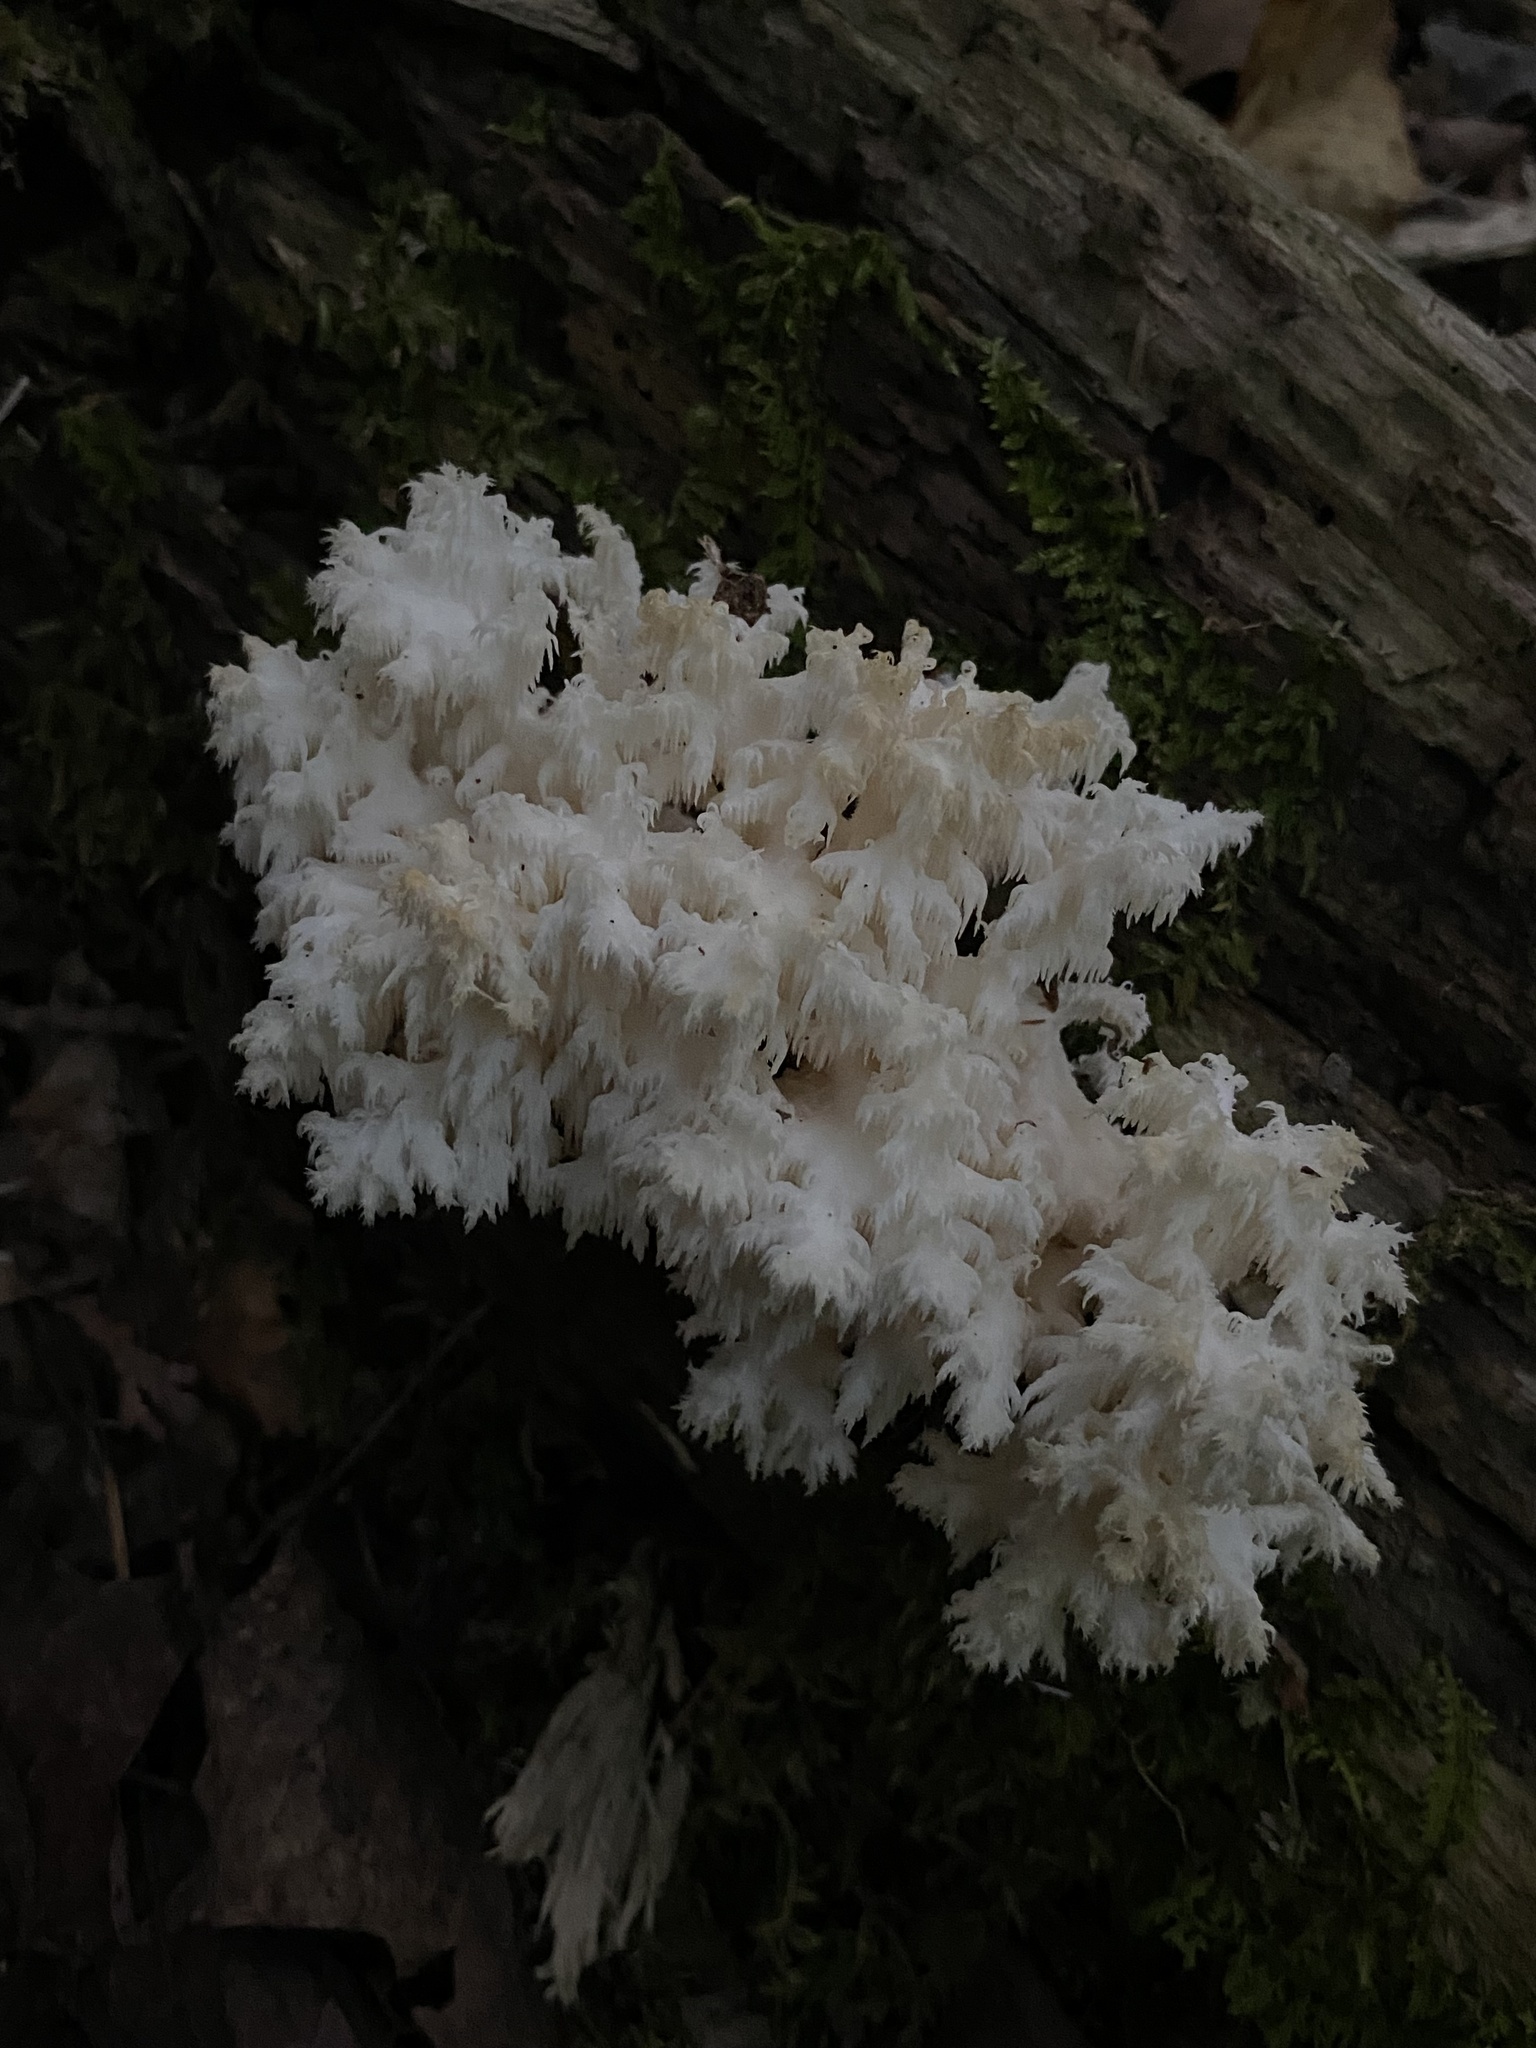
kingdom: Fungi
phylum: Basidiomycota
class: Agaricomycetes
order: Russulales
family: Hericiaceae
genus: Hericium
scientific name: Hericium coralloides
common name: Coral tooth
